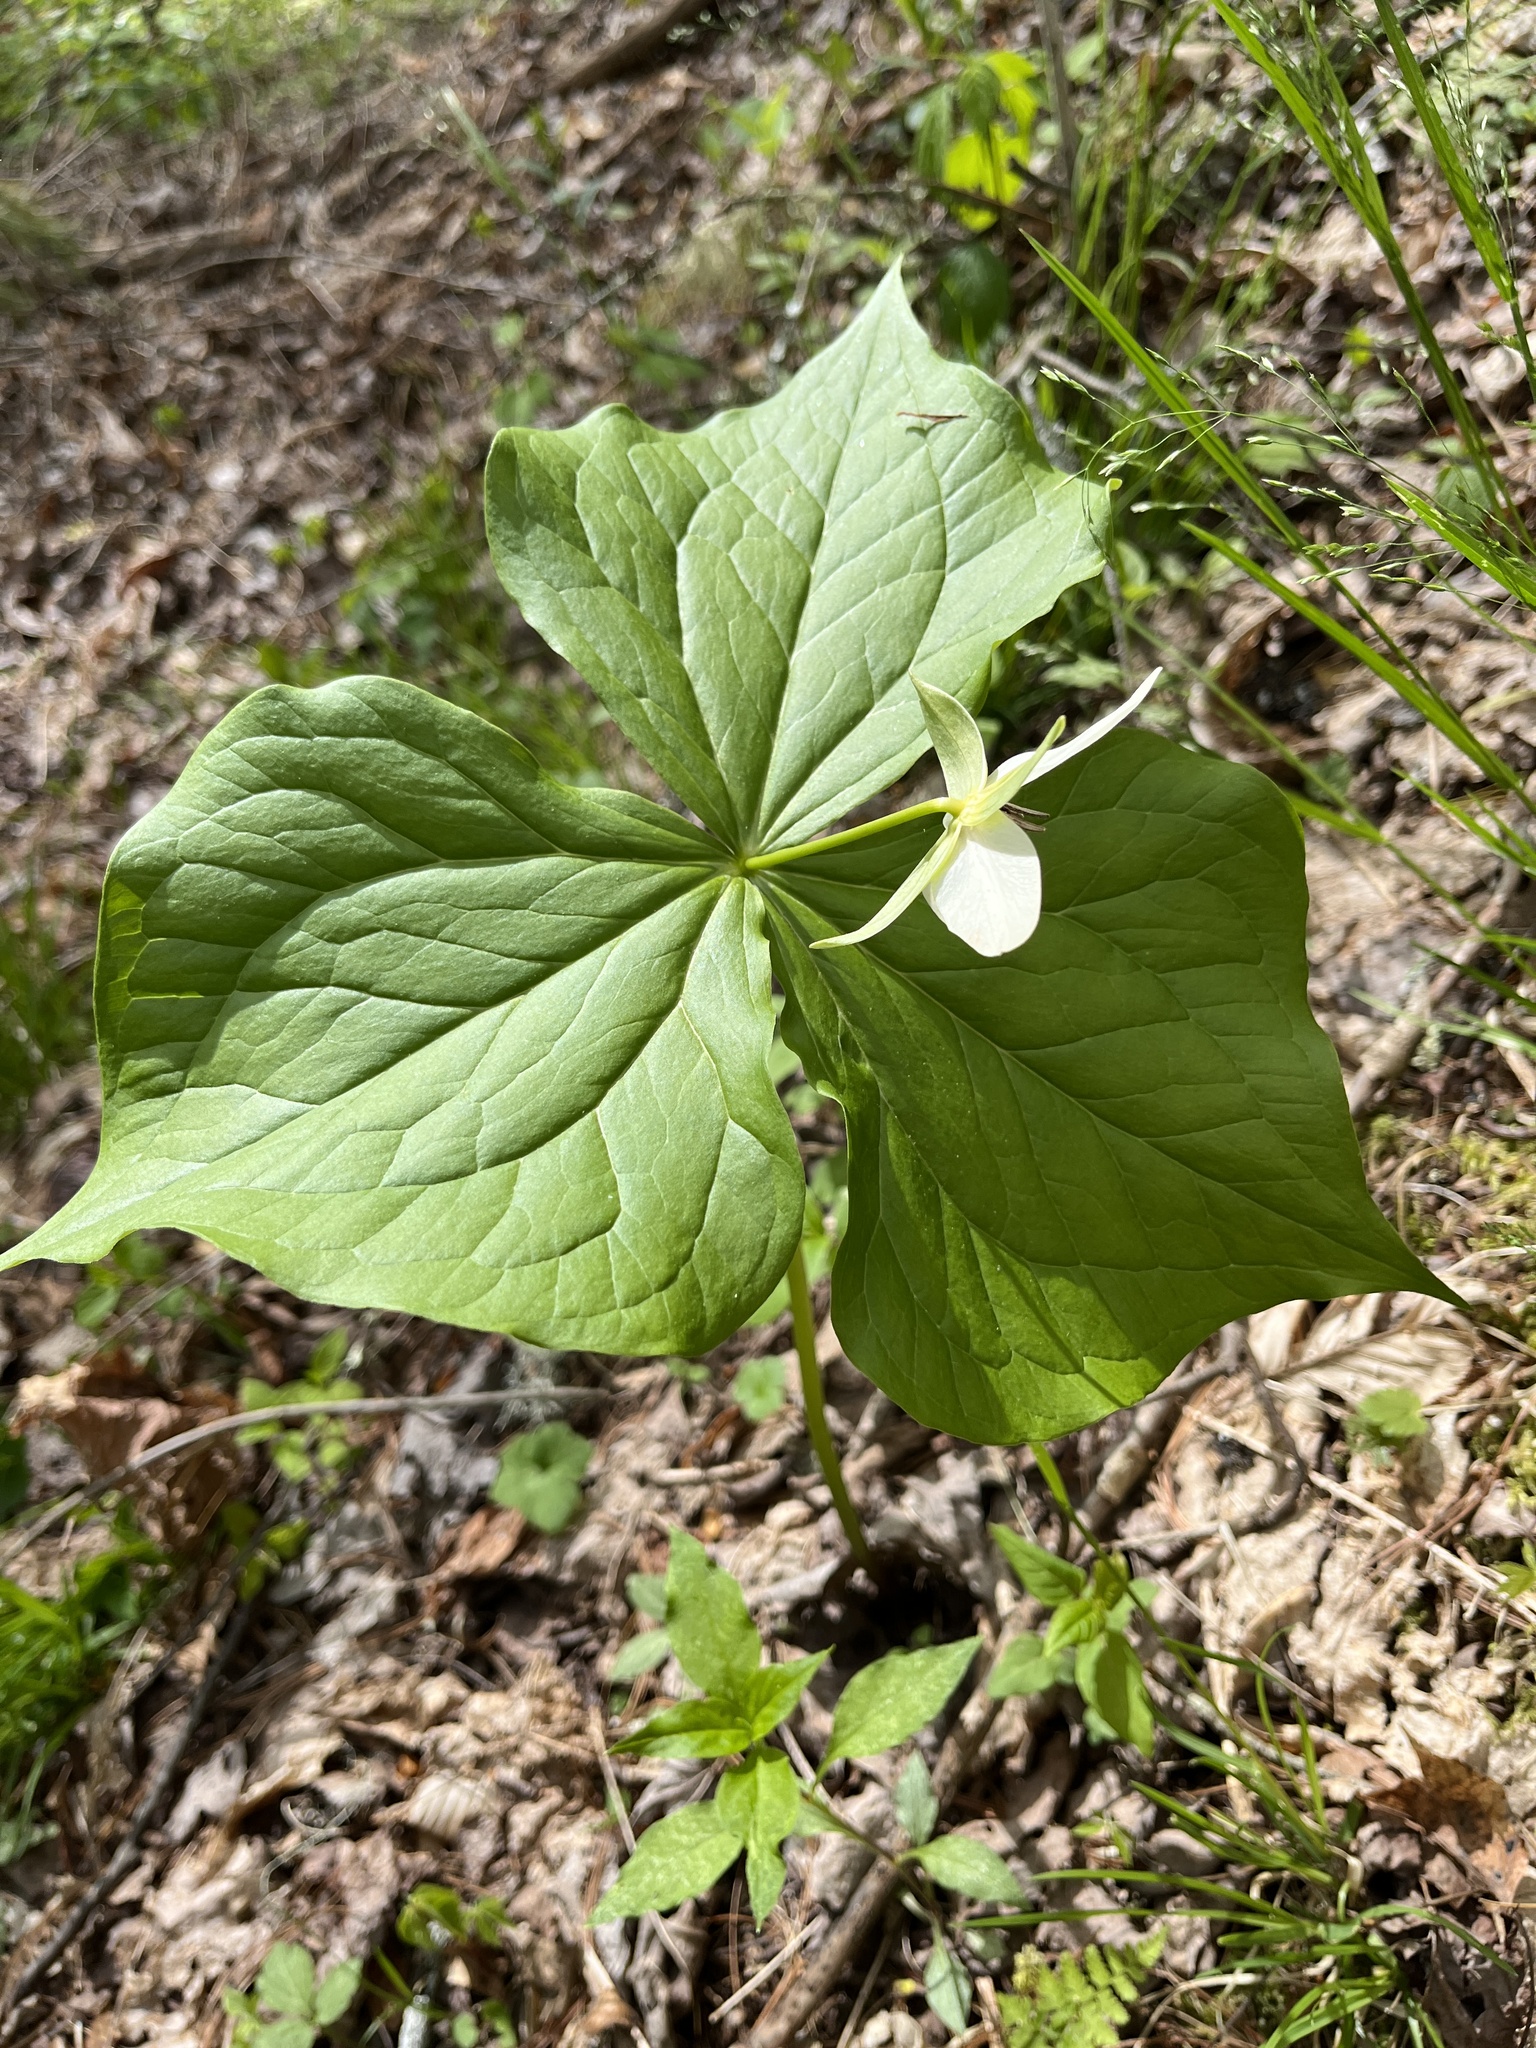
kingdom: Plantae
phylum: Tracheophyta
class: Liliopsida
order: Liliales
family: Melanthiaceae
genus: Trillium
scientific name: Trillium erectum
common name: Purple trillium
